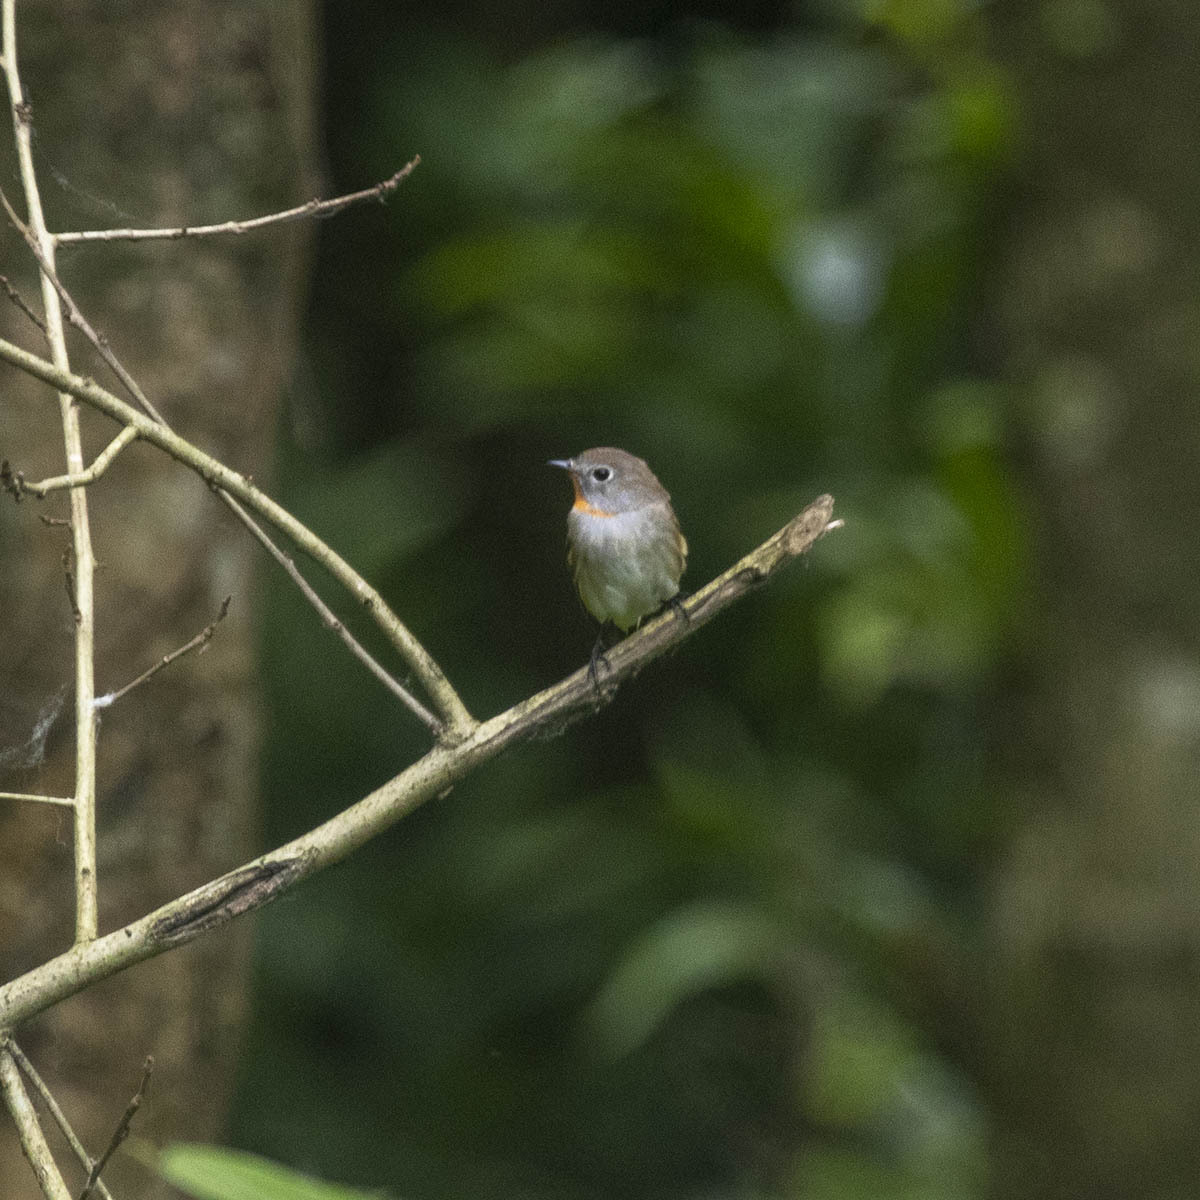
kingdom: Animalia
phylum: Chordata
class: Aves
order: Passeriformes
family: Muscicapidae
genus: Ficedula
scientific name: Ficedula albicilla
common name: Taiga flycatcher
